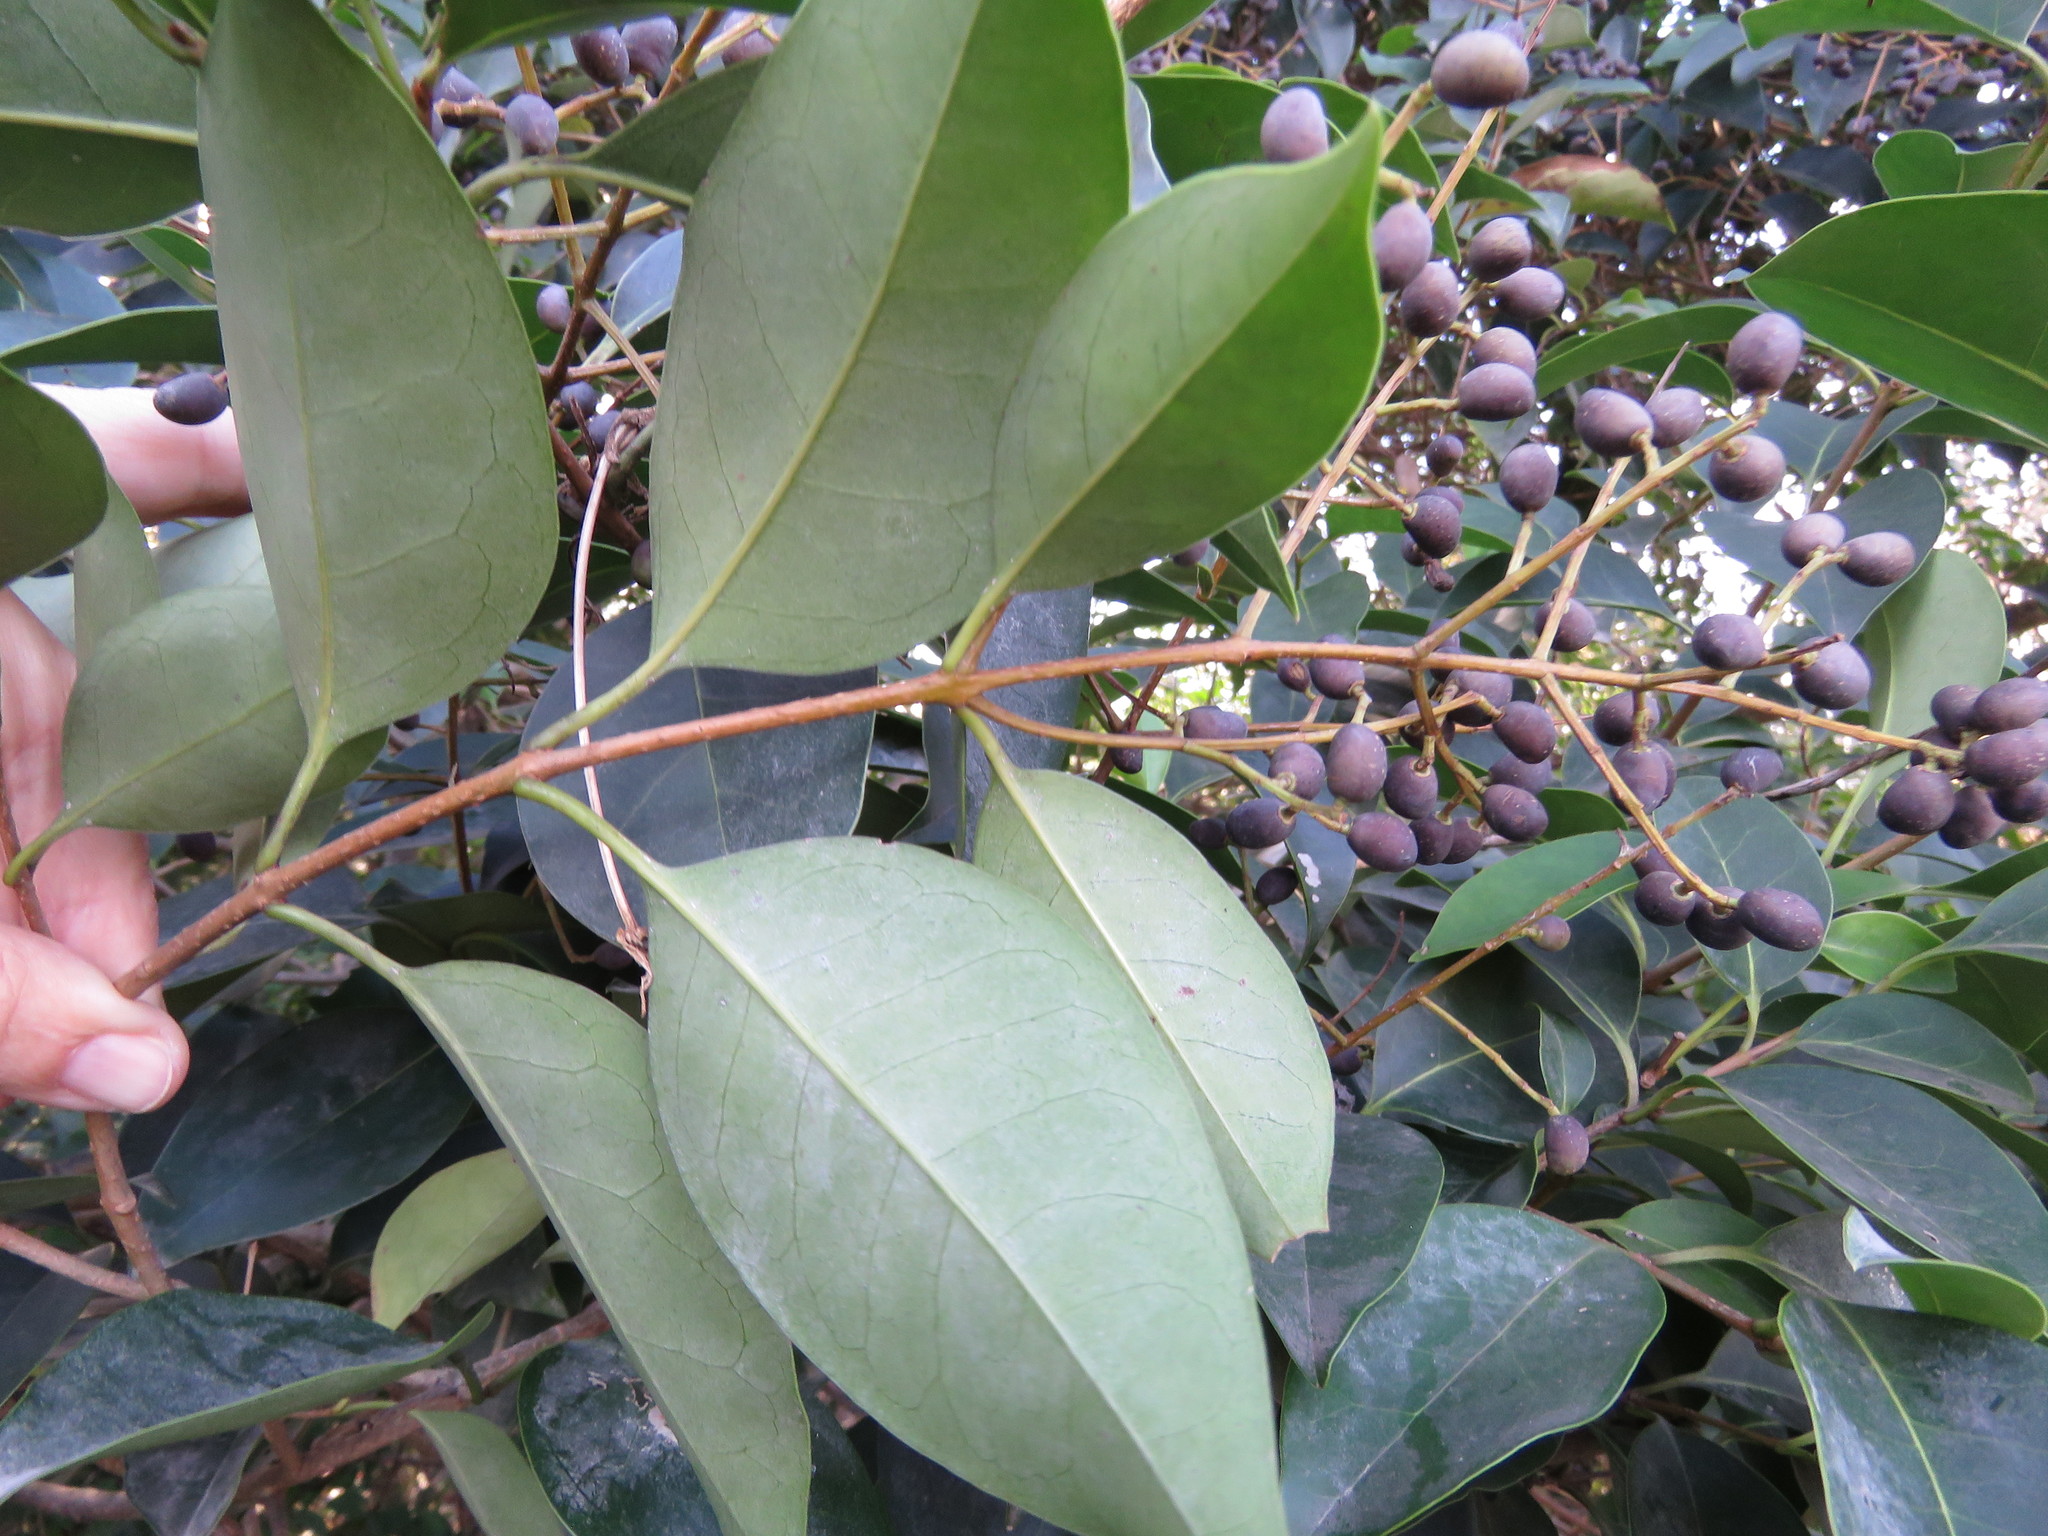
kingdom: Plantae
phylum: Tracheophyta
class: Magnoliopsida
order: Lamiales
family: Oleaceae
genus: Ligustrum
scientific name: Ligustrum lucidum
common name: Glossy privet
